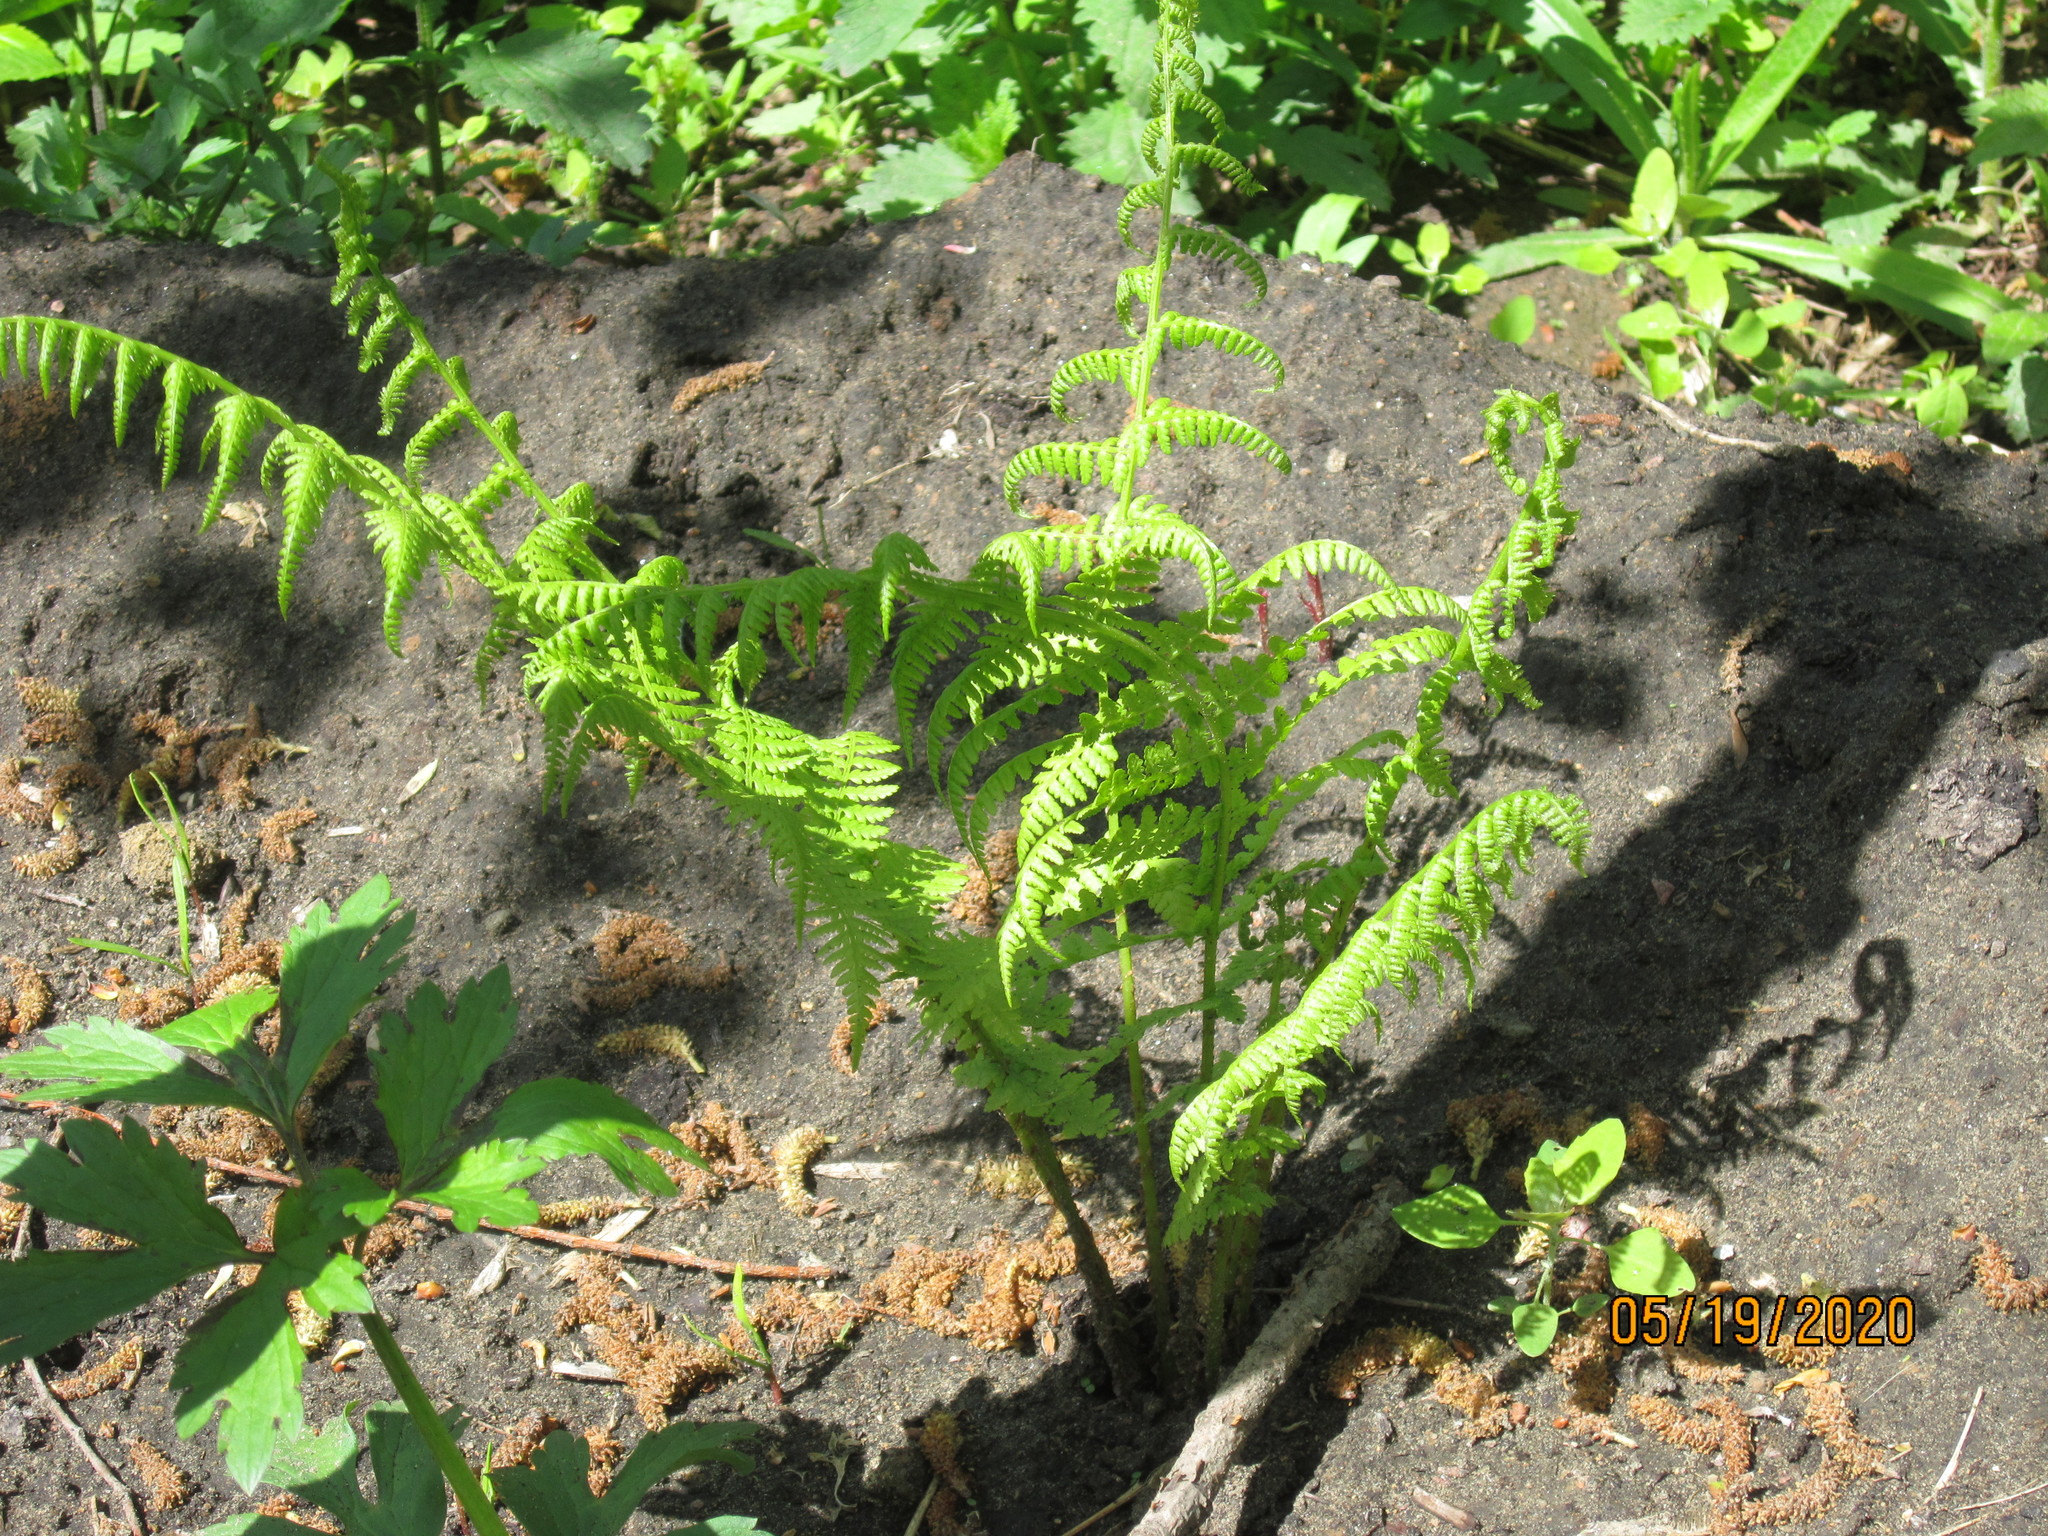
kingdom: Plantae
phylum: Tracheophyta
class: Polypodiopsida
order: Polypodiales
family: Athyriaceae
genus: Athyrium
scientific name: Athyrium filix-femina
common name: Lady fern
